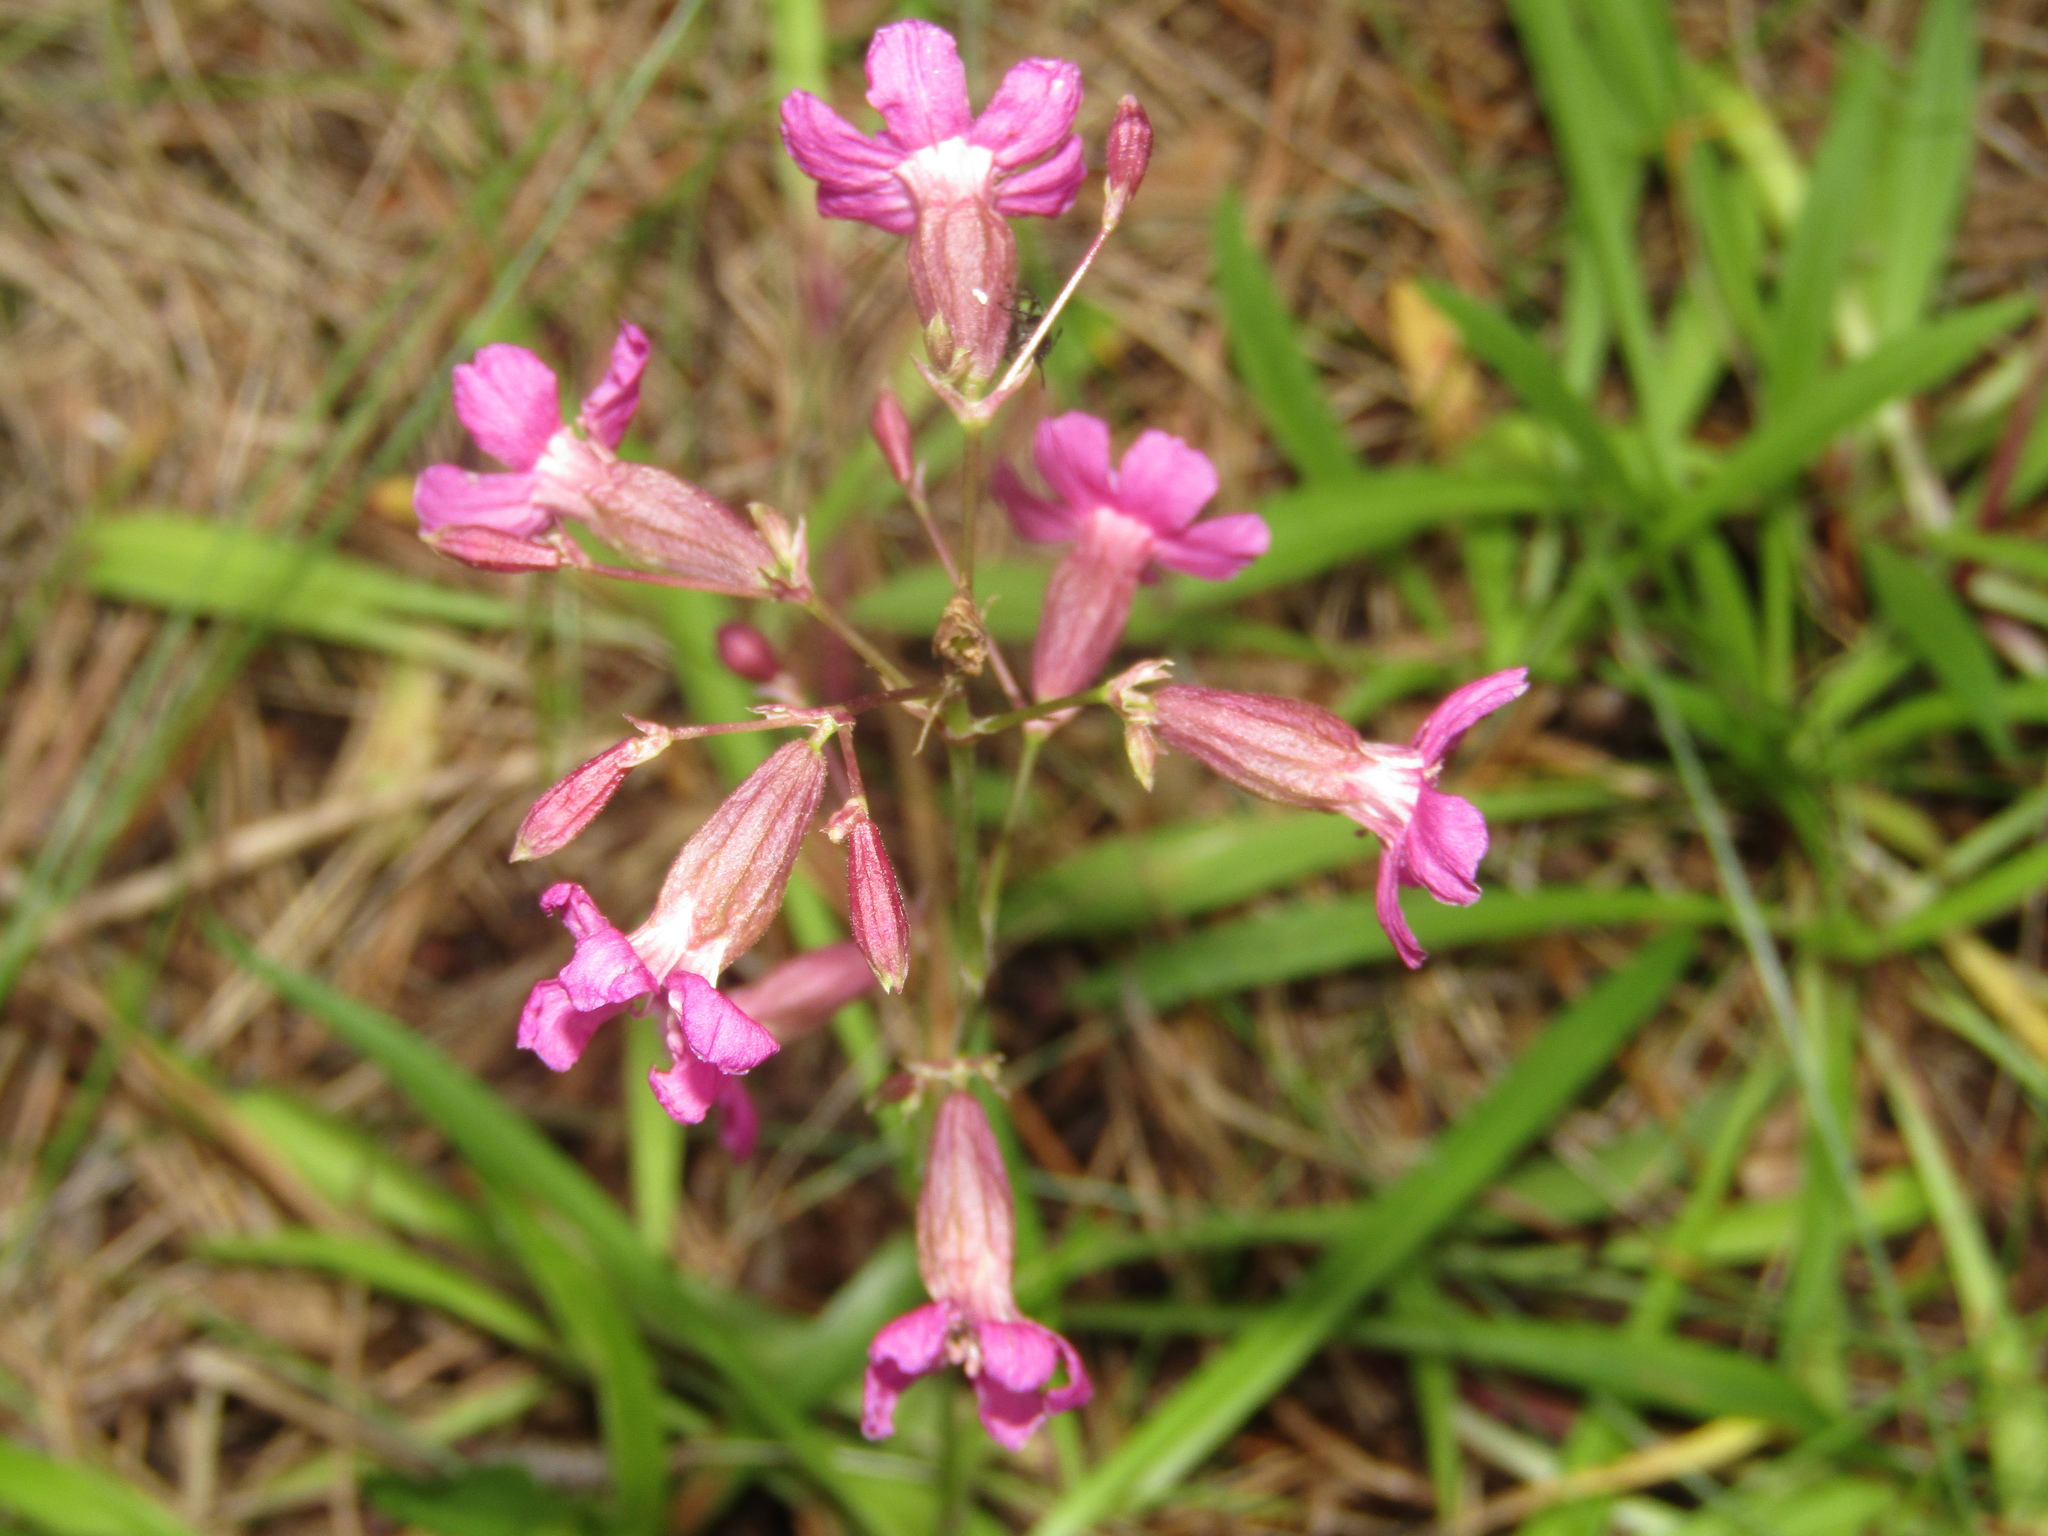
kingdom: Plantae
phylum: Tracheophyta
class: Magnoliopsida
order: Caryophyllales
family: Caryophyllaceae
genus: Viscaria
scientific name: Viscaria vulgaris
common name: Clammy campion
